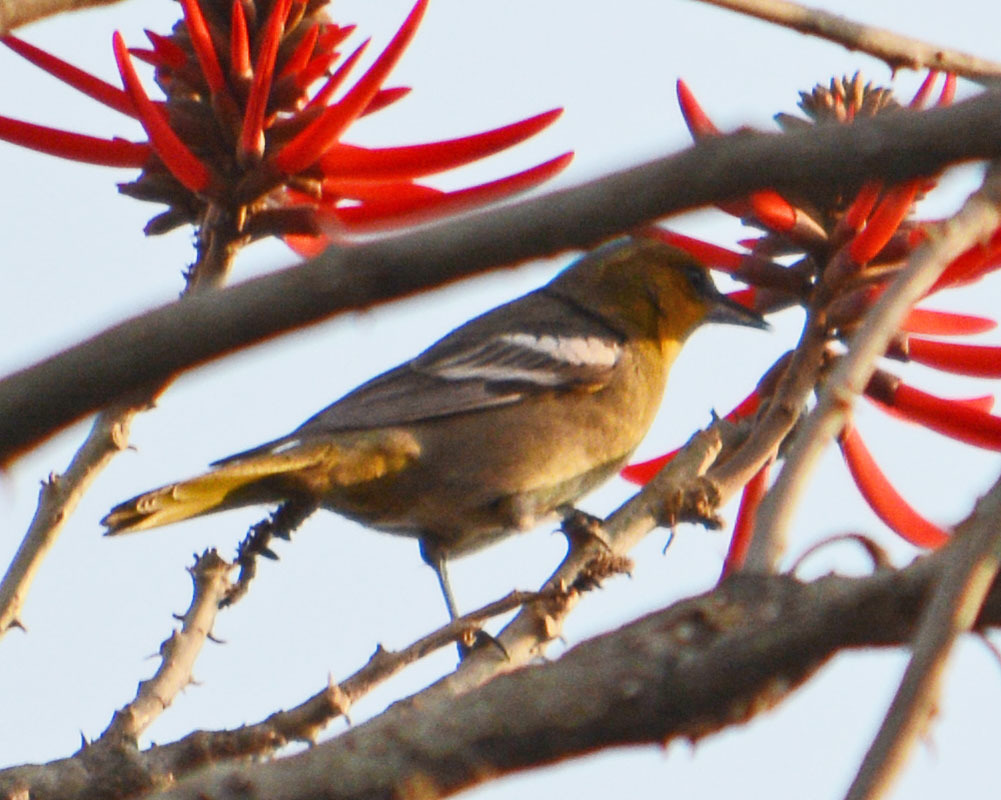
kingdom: Animalia
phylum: Chordata
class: Aves
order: Passeriformes
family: Icteridae
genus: Icterus
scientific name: Icterus abeillei
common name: Black-backed oriole
